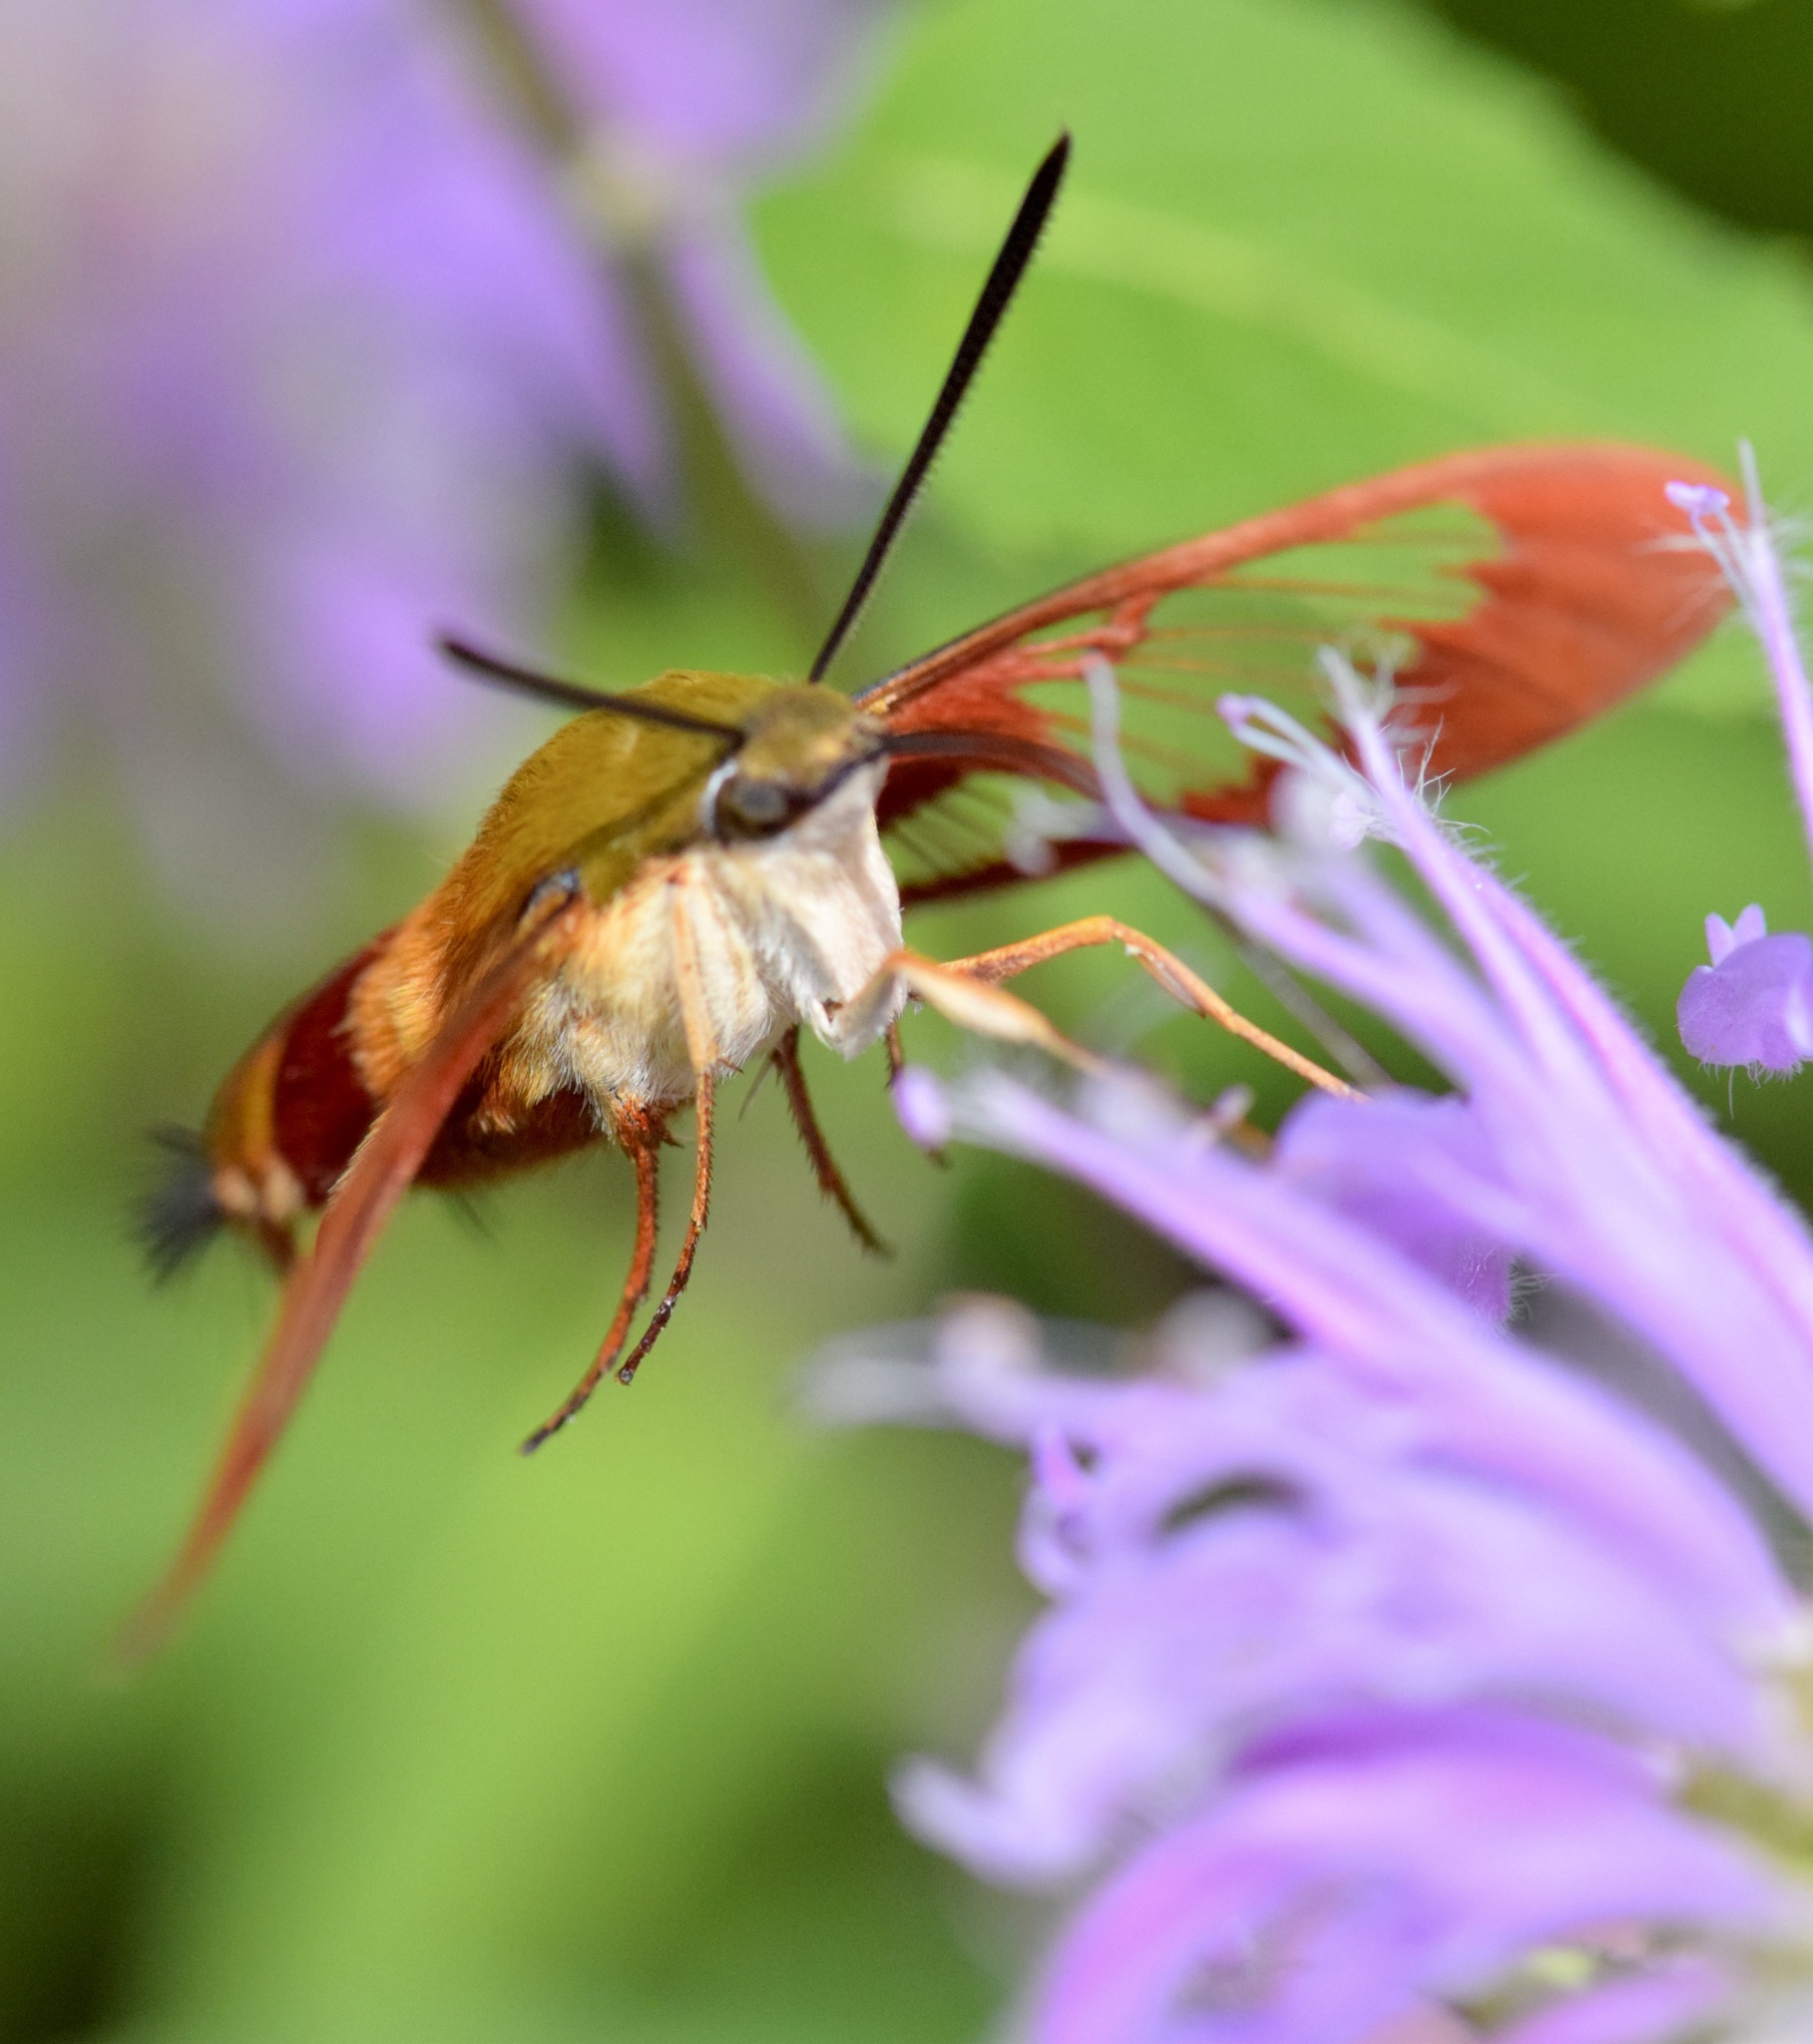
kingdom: Animalia
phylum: Arthropoda
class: Insecta
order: Lepidoptera
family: Sphingidae
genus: Hemaris
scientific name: Hemaris thysbe
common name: Common clear-wing
